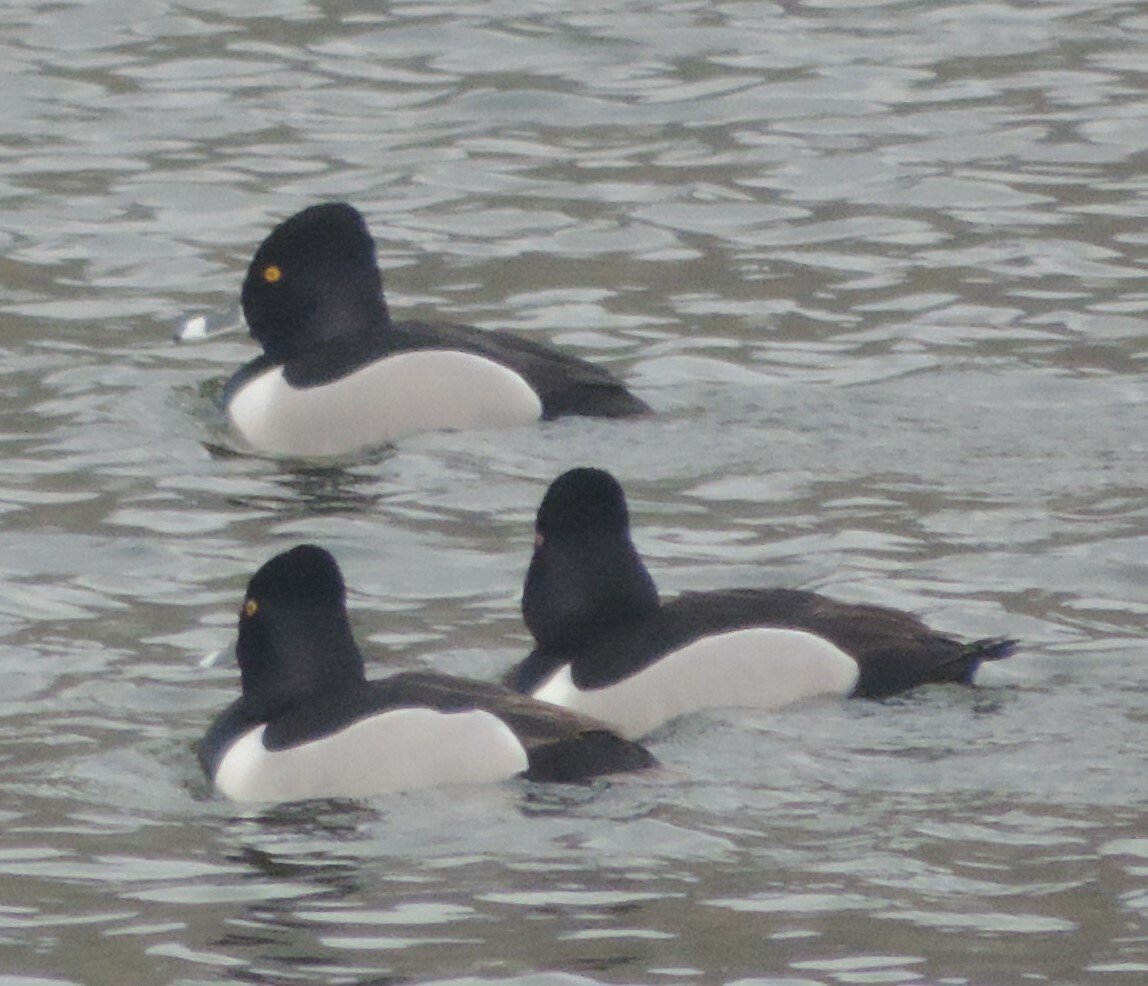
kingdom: Animalia
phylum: Chordata
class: Aves
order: Anseriformes
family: Anatidae
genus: Aythya
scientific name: Aythya collaris
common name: Ring-necked duck
